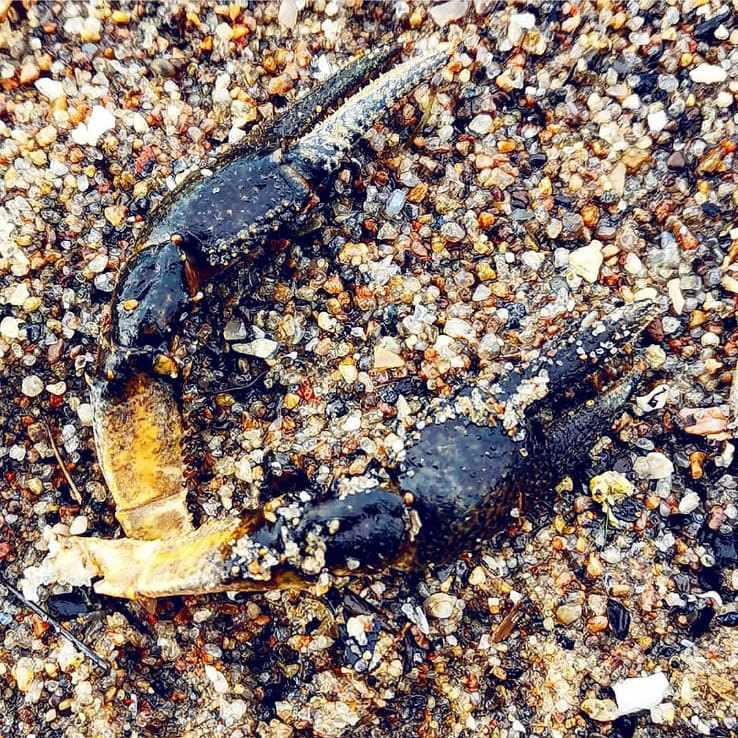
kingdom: Animalia
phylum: Arthropoda
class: Malacostraca
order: Decapoda
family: Astacidae
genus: Astacus
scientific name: Astacus astacus
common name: Noble crayfish
